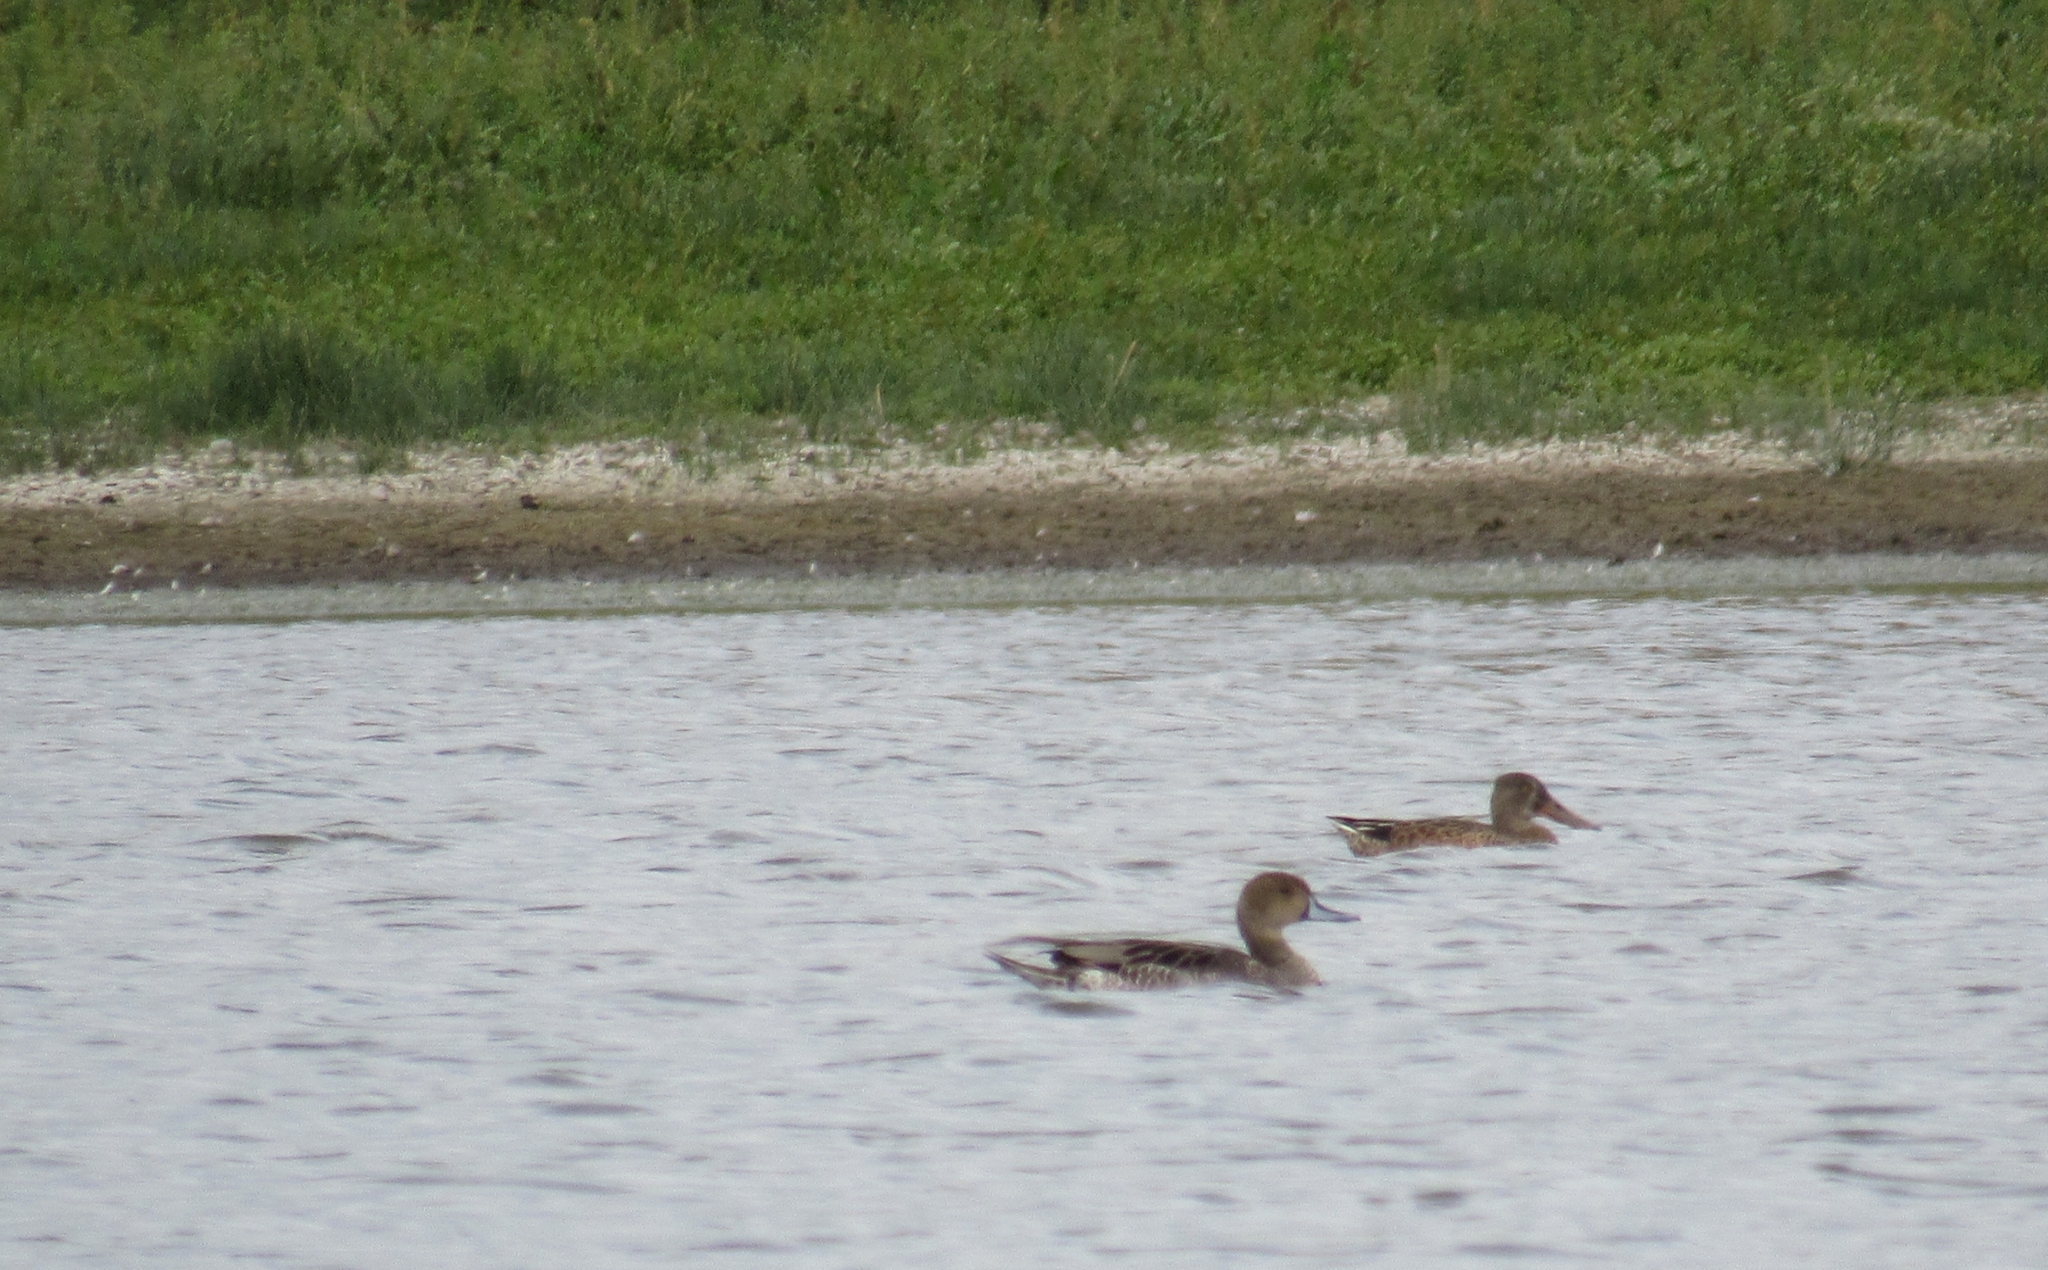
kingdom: Animalia
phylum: Chordata
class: Aves
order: Anseriformes
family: Anatidae
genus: Anas
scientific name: Anas acuta
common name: Northern pintail
